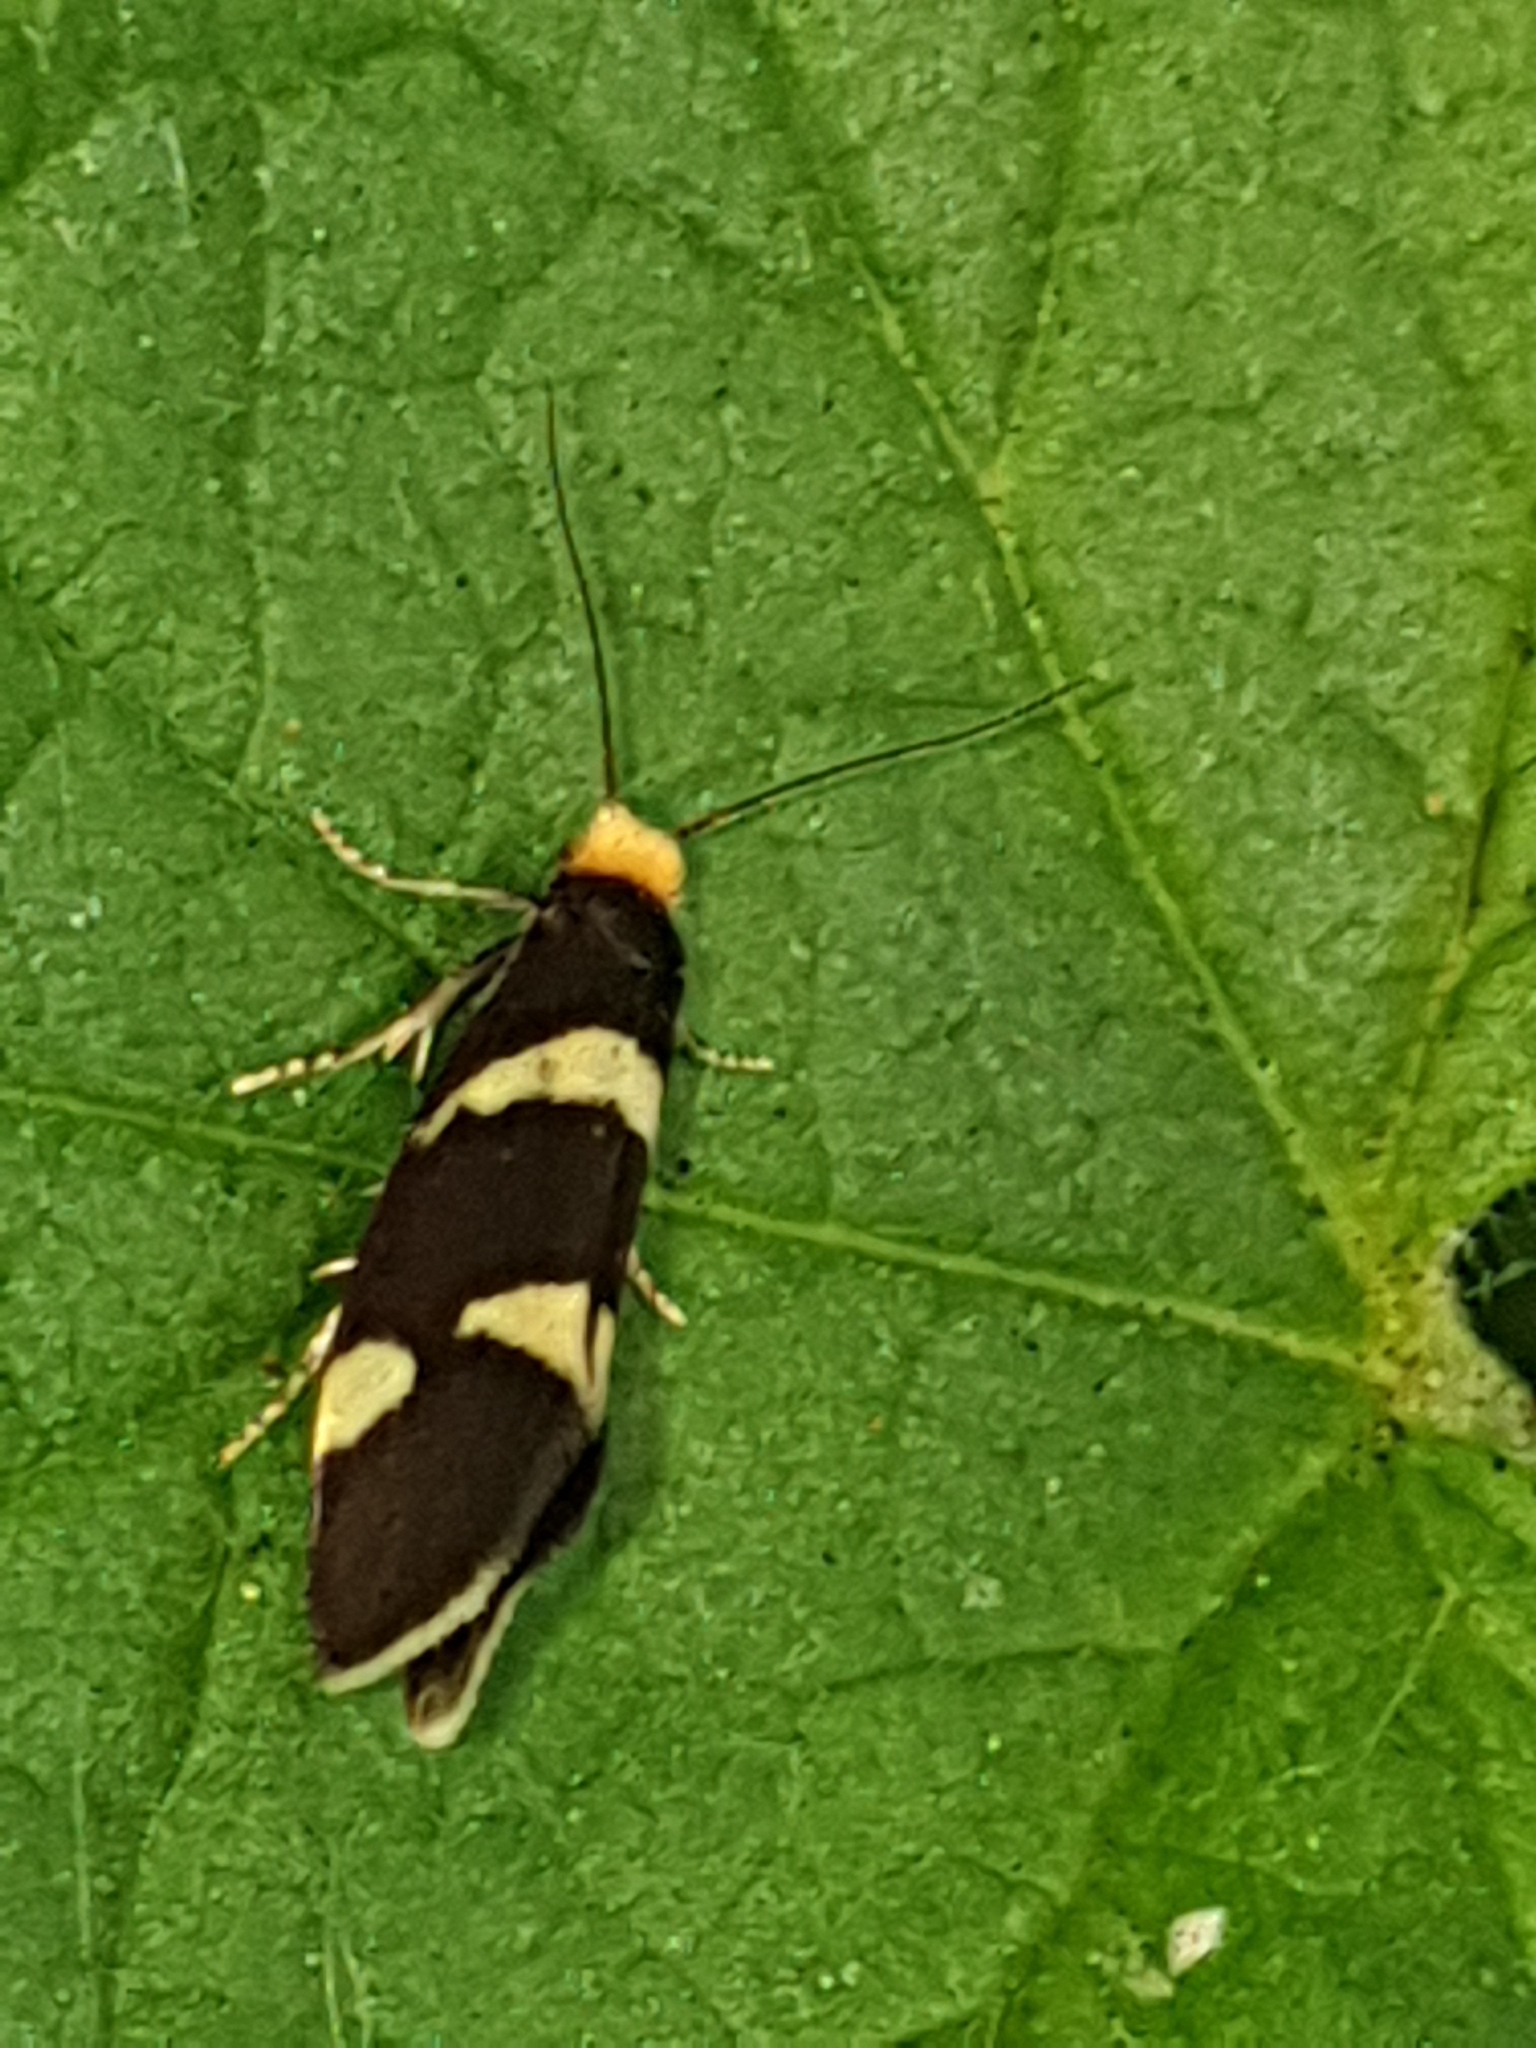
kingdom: Animalia
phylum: Arthropoda
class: Insecta
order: Lepidoptera
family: Incurvariidae
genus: Incurvaria
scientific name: Incurvaria capittella
